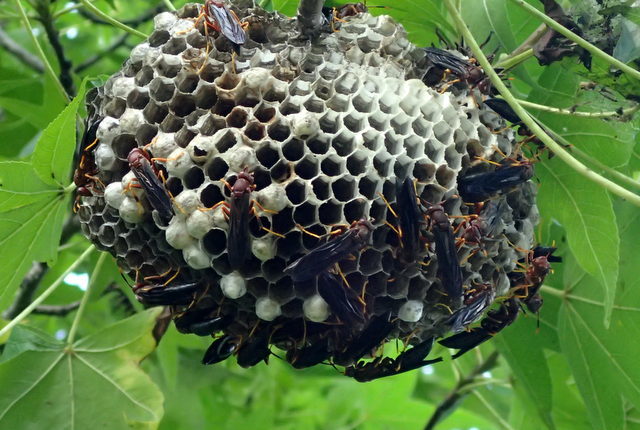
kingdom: Animalia
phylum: Arthropoda
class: Insecta
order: Hymenoptera
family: Eumenidae
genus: Polistes
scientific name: Polistes annularis
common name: Ringed paper wasp
